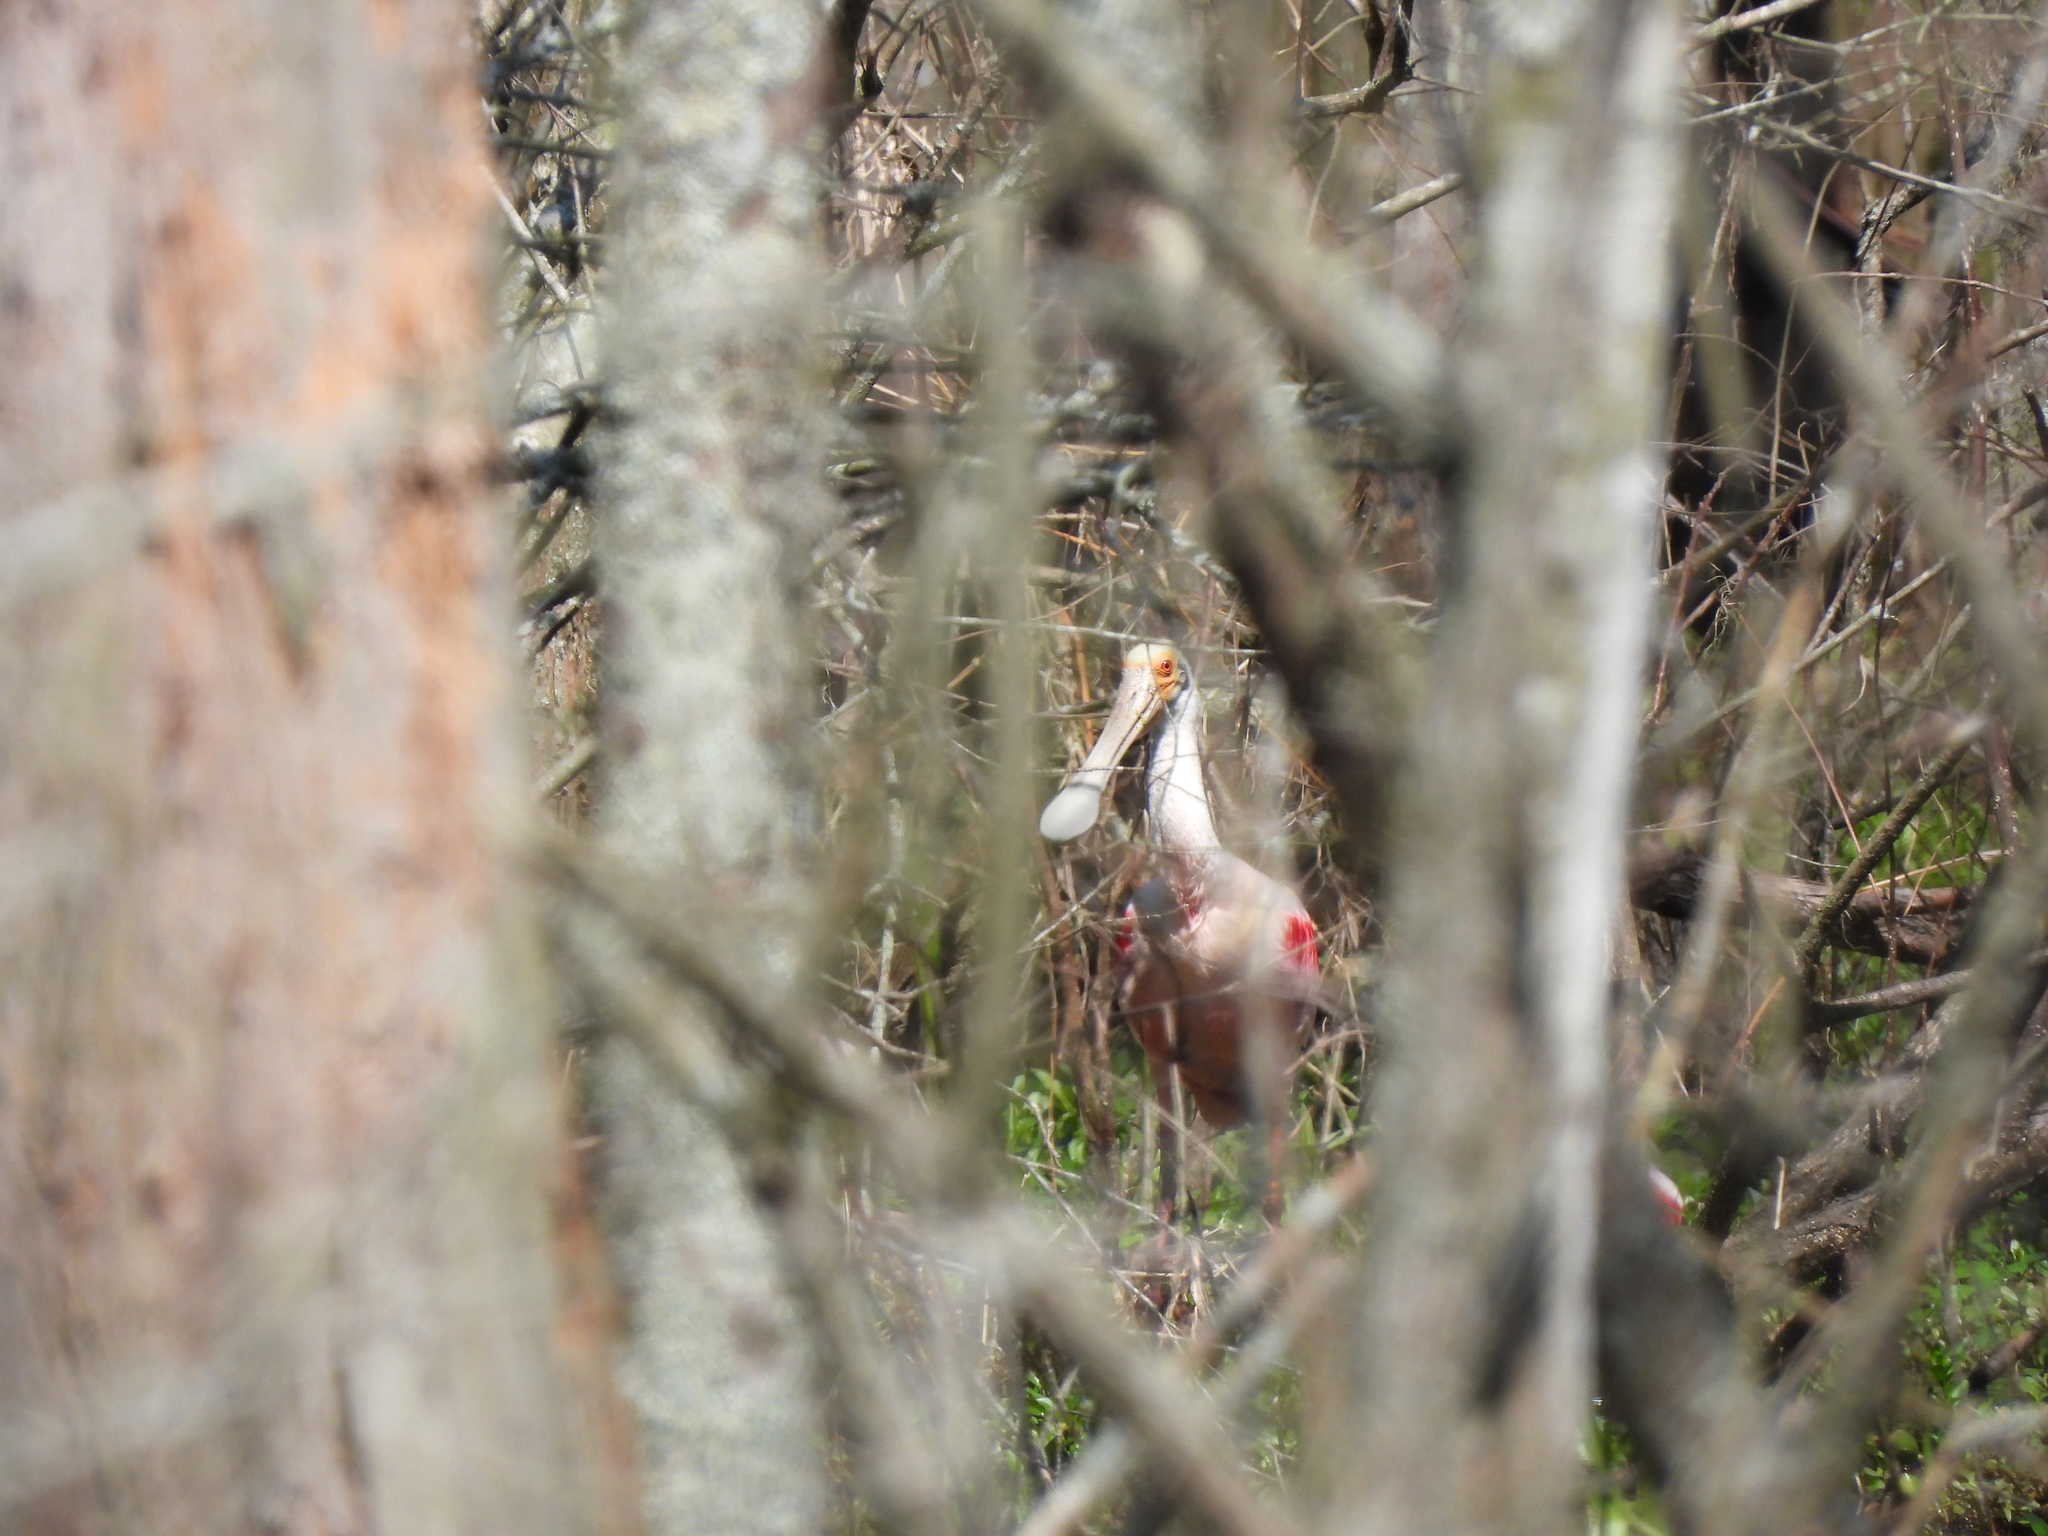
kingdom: Animalia
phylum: Chordata
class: Aves
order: Pelecaniformes
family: Threskiornithidae
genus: Platalea
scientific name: Platalea ajaja
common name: Roseate spoonbill
